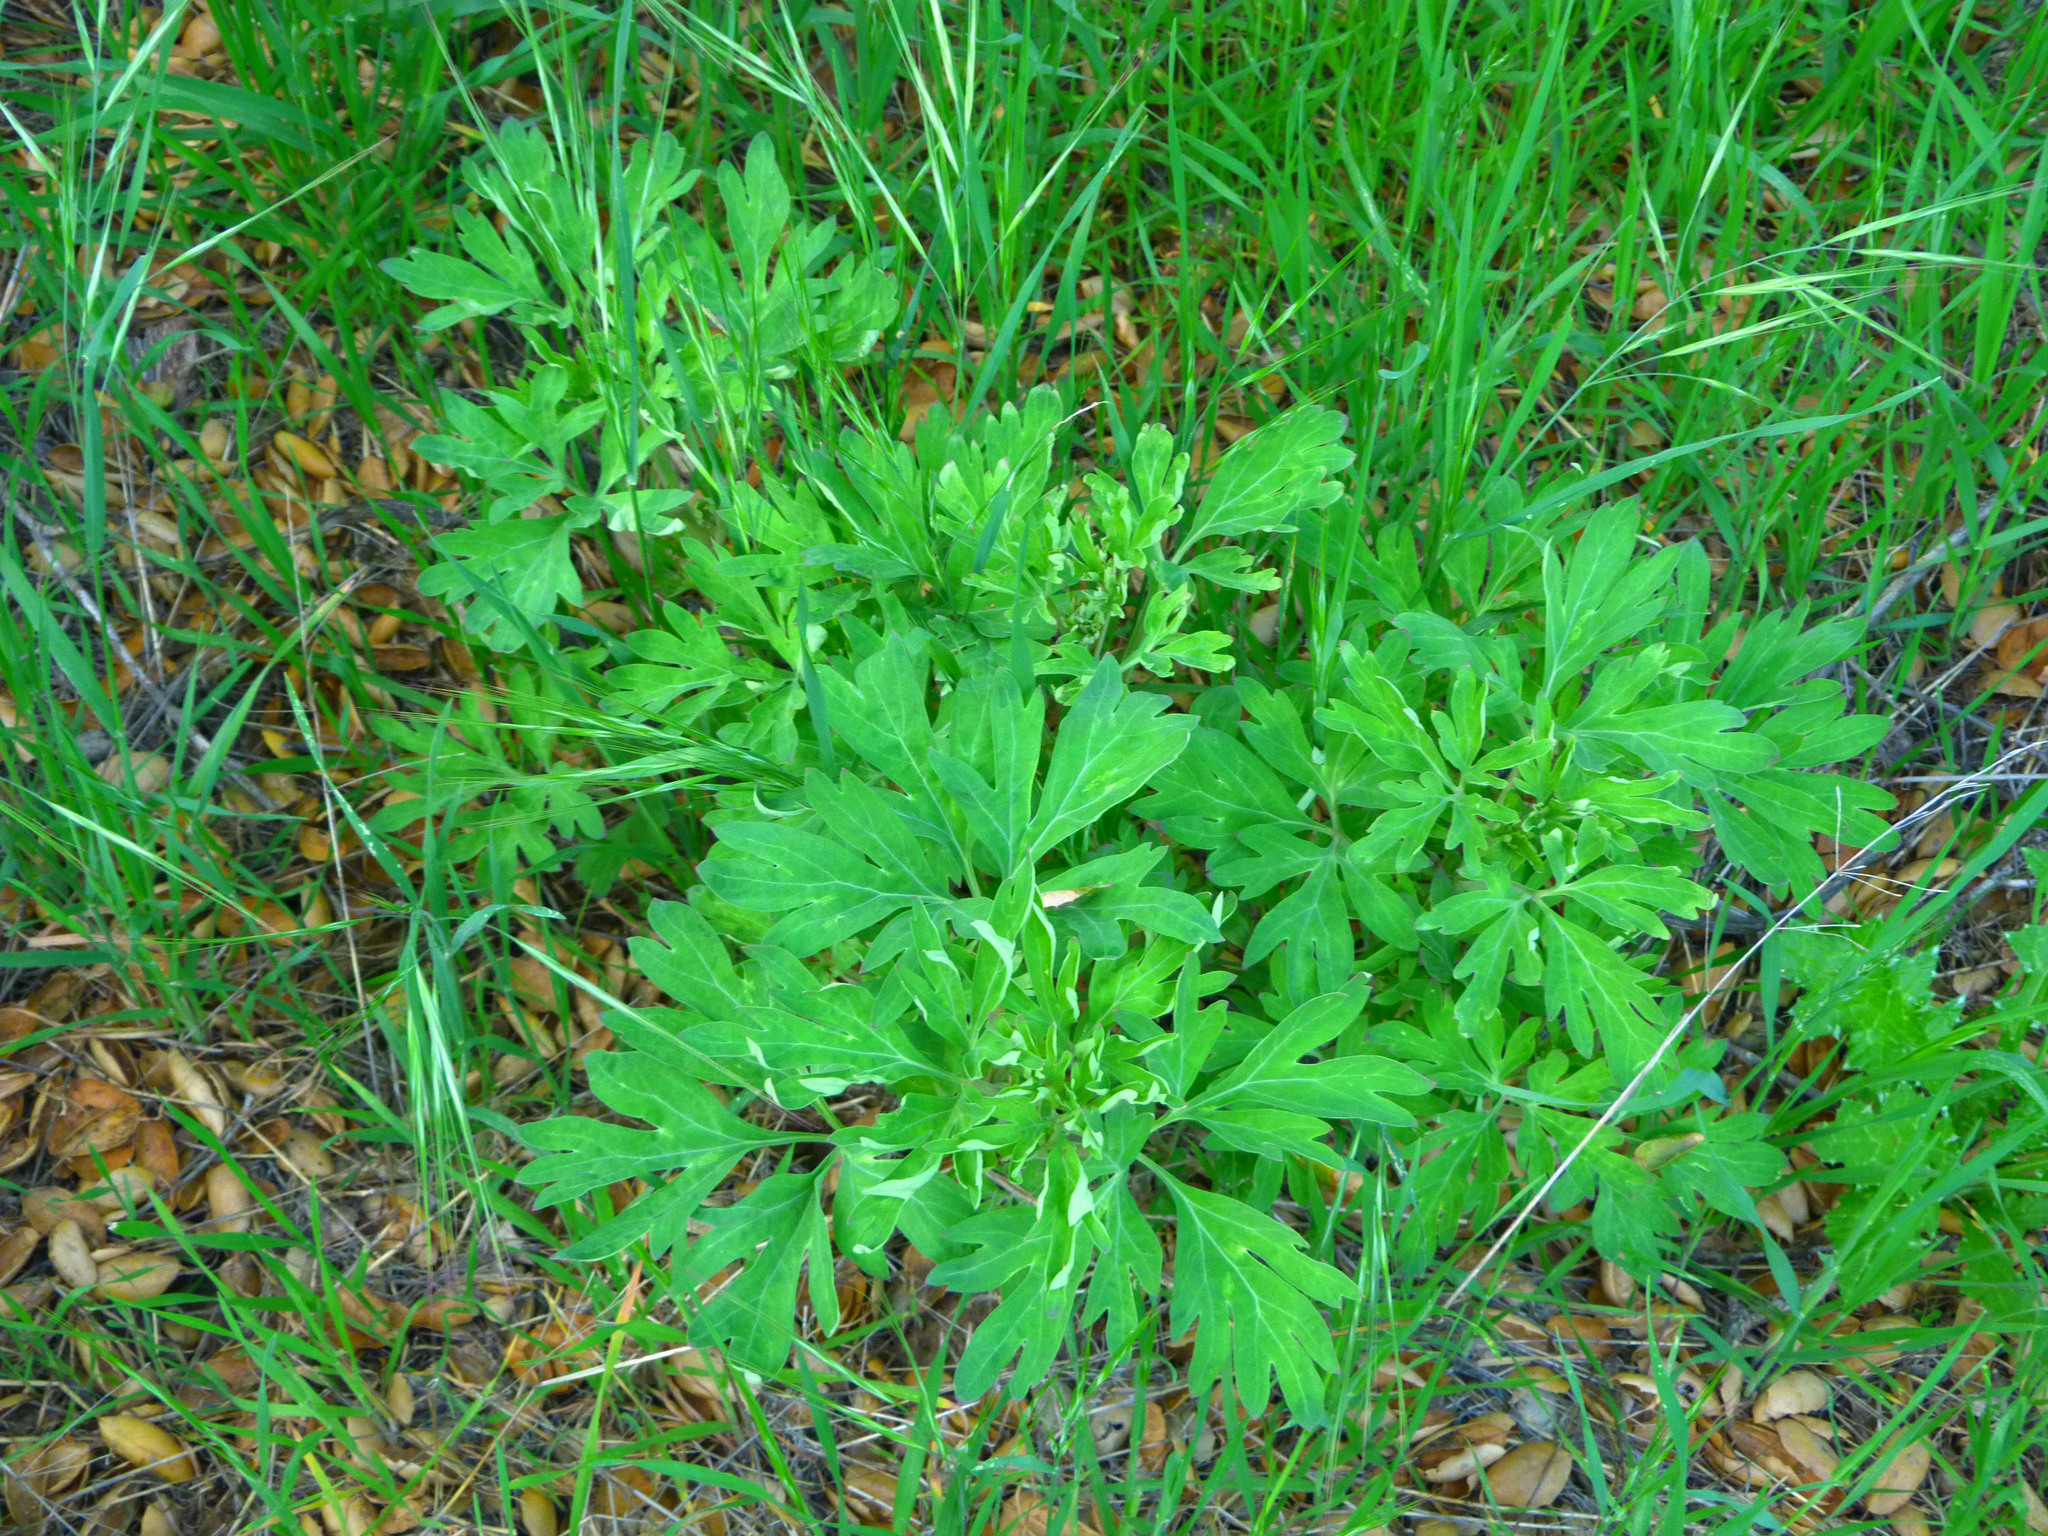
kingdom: Plantae
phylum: Tracheophyta
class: Magnoliopsida
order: Saxifragales
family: Paeoniaceae
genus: Paeonia
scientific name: Paeonia californica
